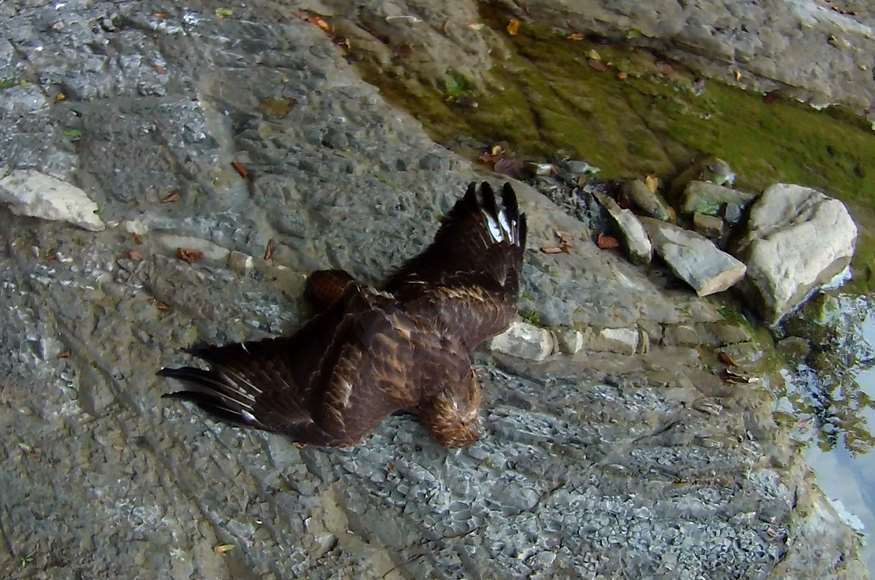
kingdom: Animalia
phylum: Chordata
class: Aves
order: Accipitriformes
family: Accipitridae
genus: Buteo
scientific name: Buteo buteo
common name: Common buzzard
